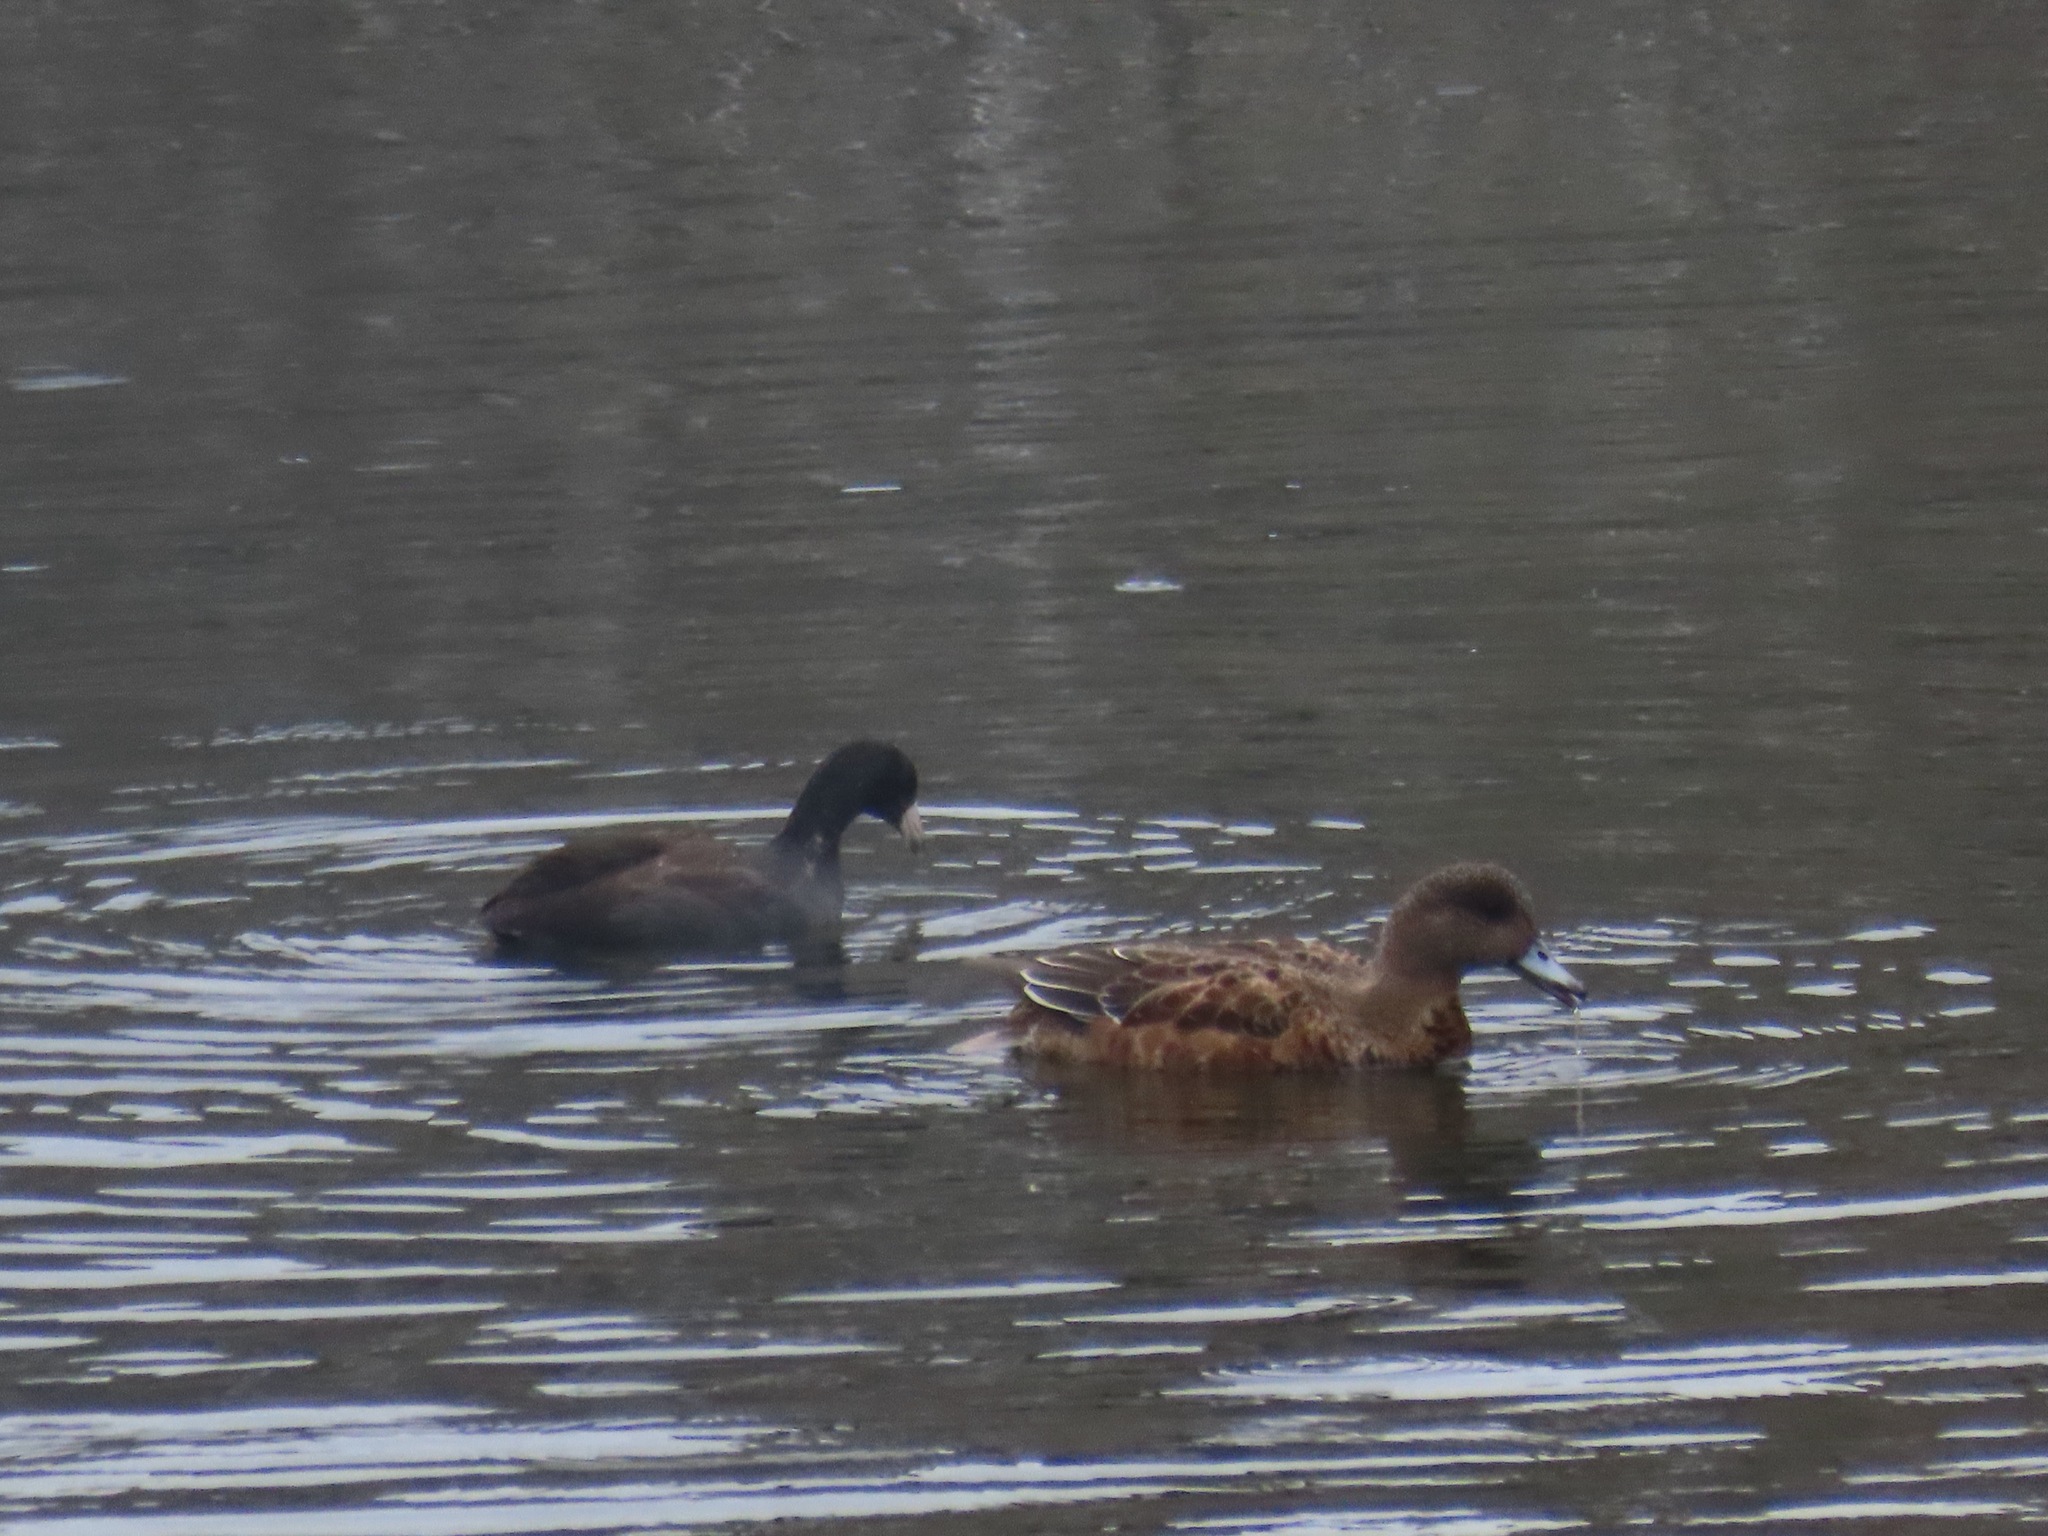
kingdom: Animalia
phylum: Chordata
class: Aves
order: Gruiformes
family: Rallidae
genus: Fulica
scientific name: Fulica americana
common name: American coot
